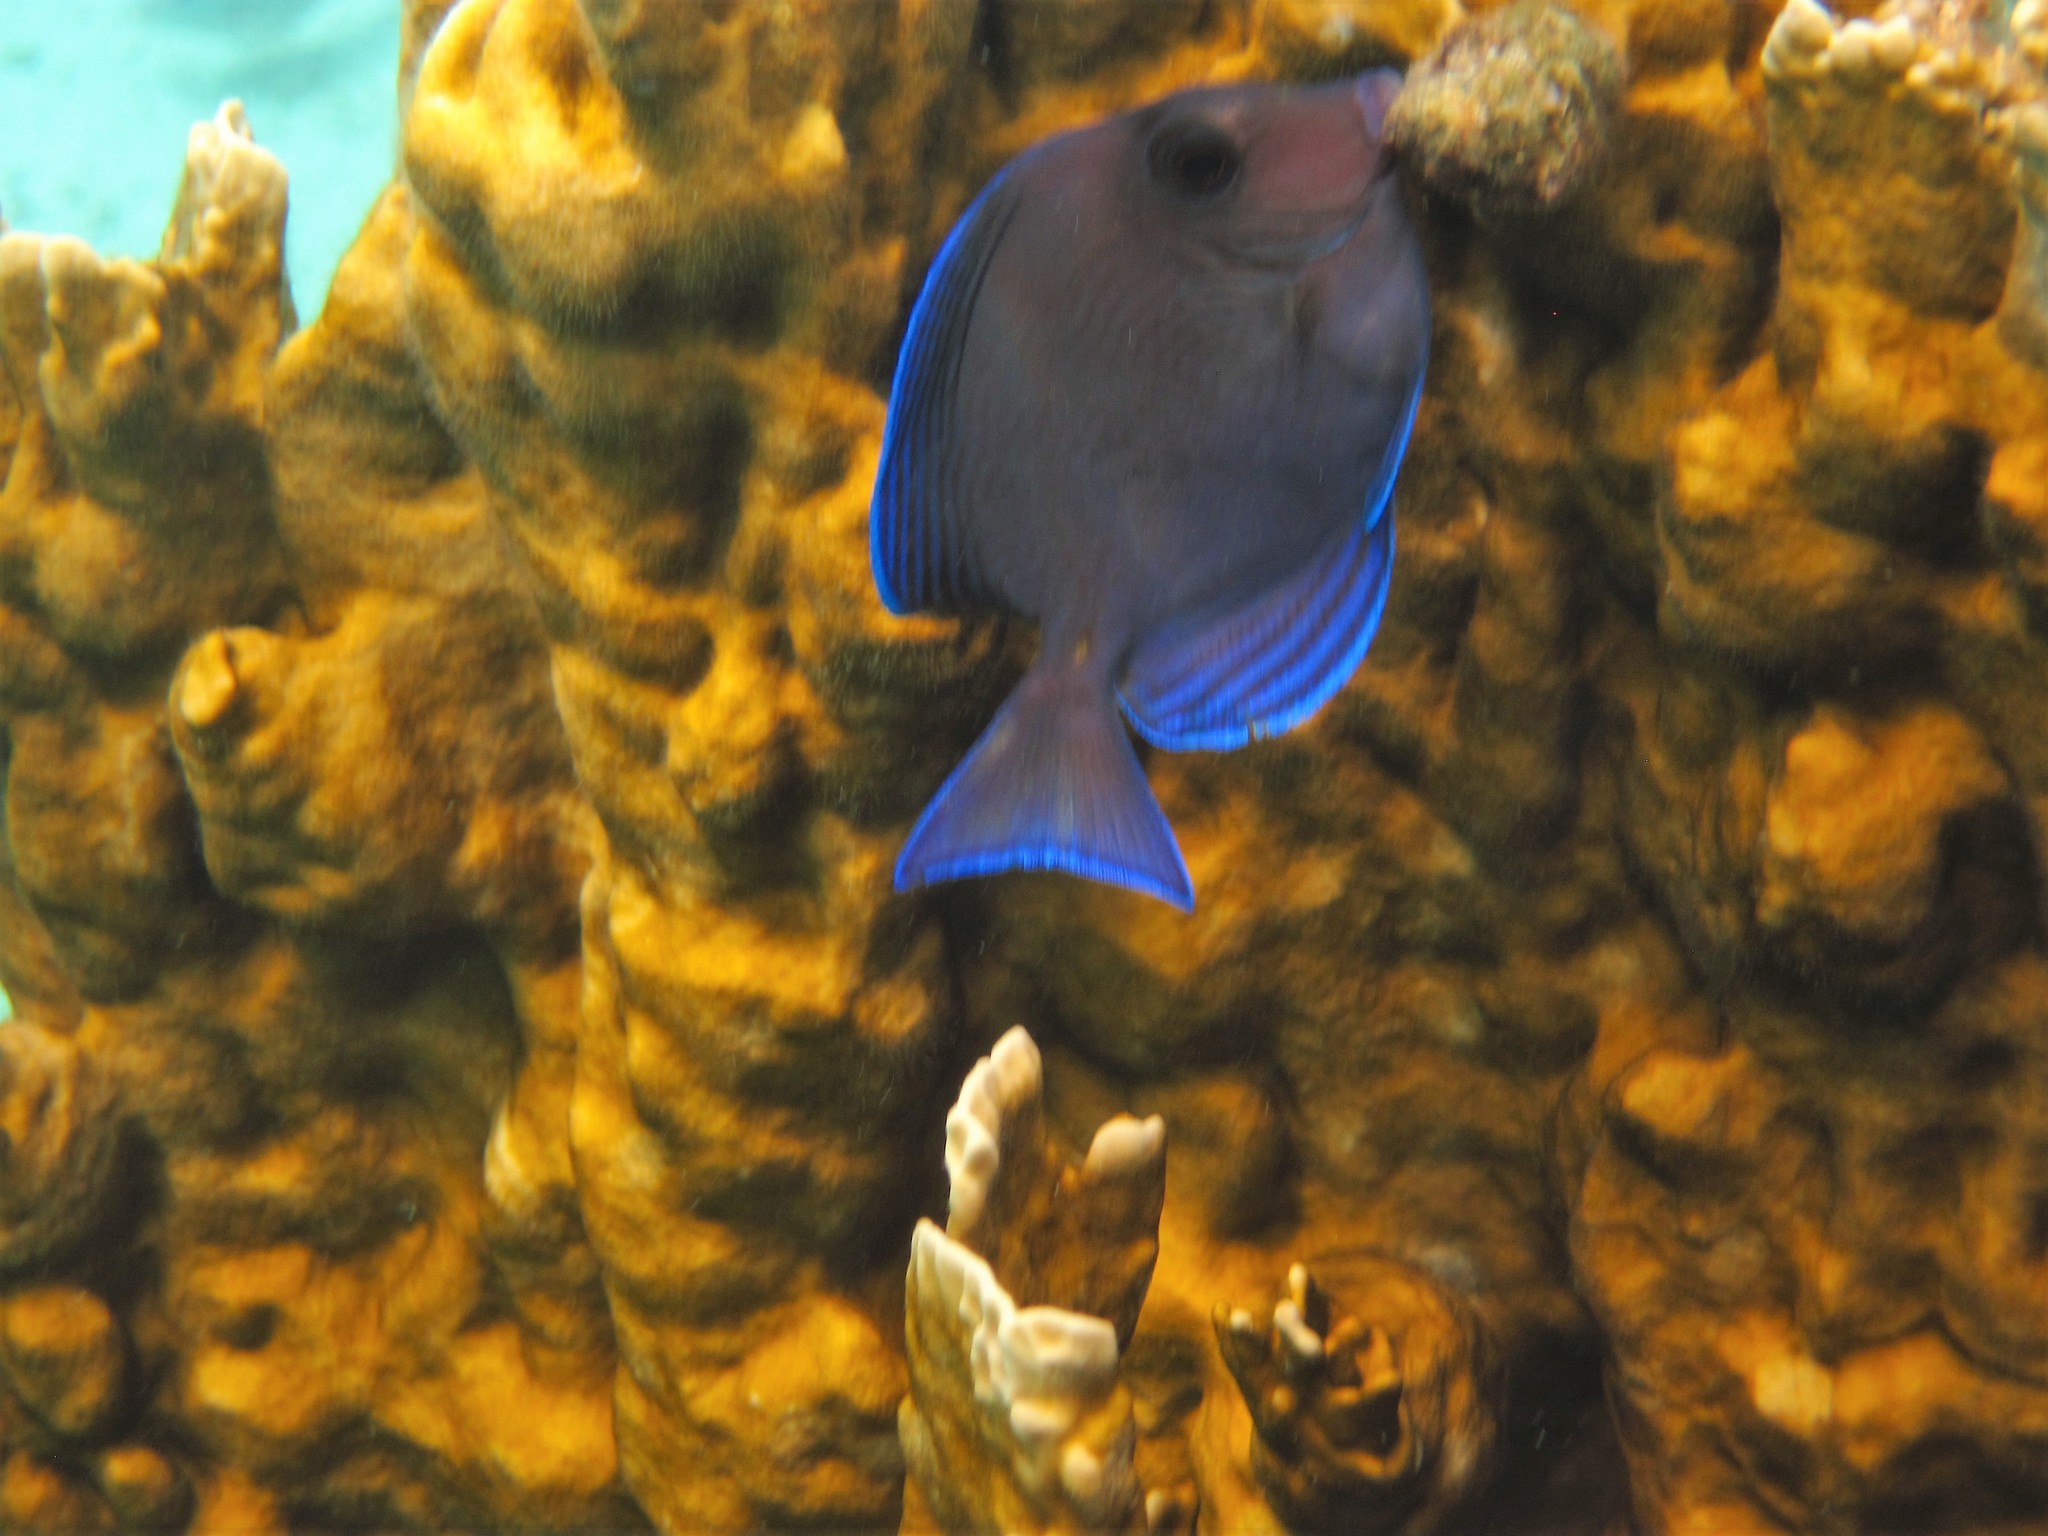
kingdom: Animalia
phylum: Chordata
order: Perciformes
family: Acanthuridae
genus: Acanthurus
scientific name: Acanthurus coeruleus
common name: Blue tang
